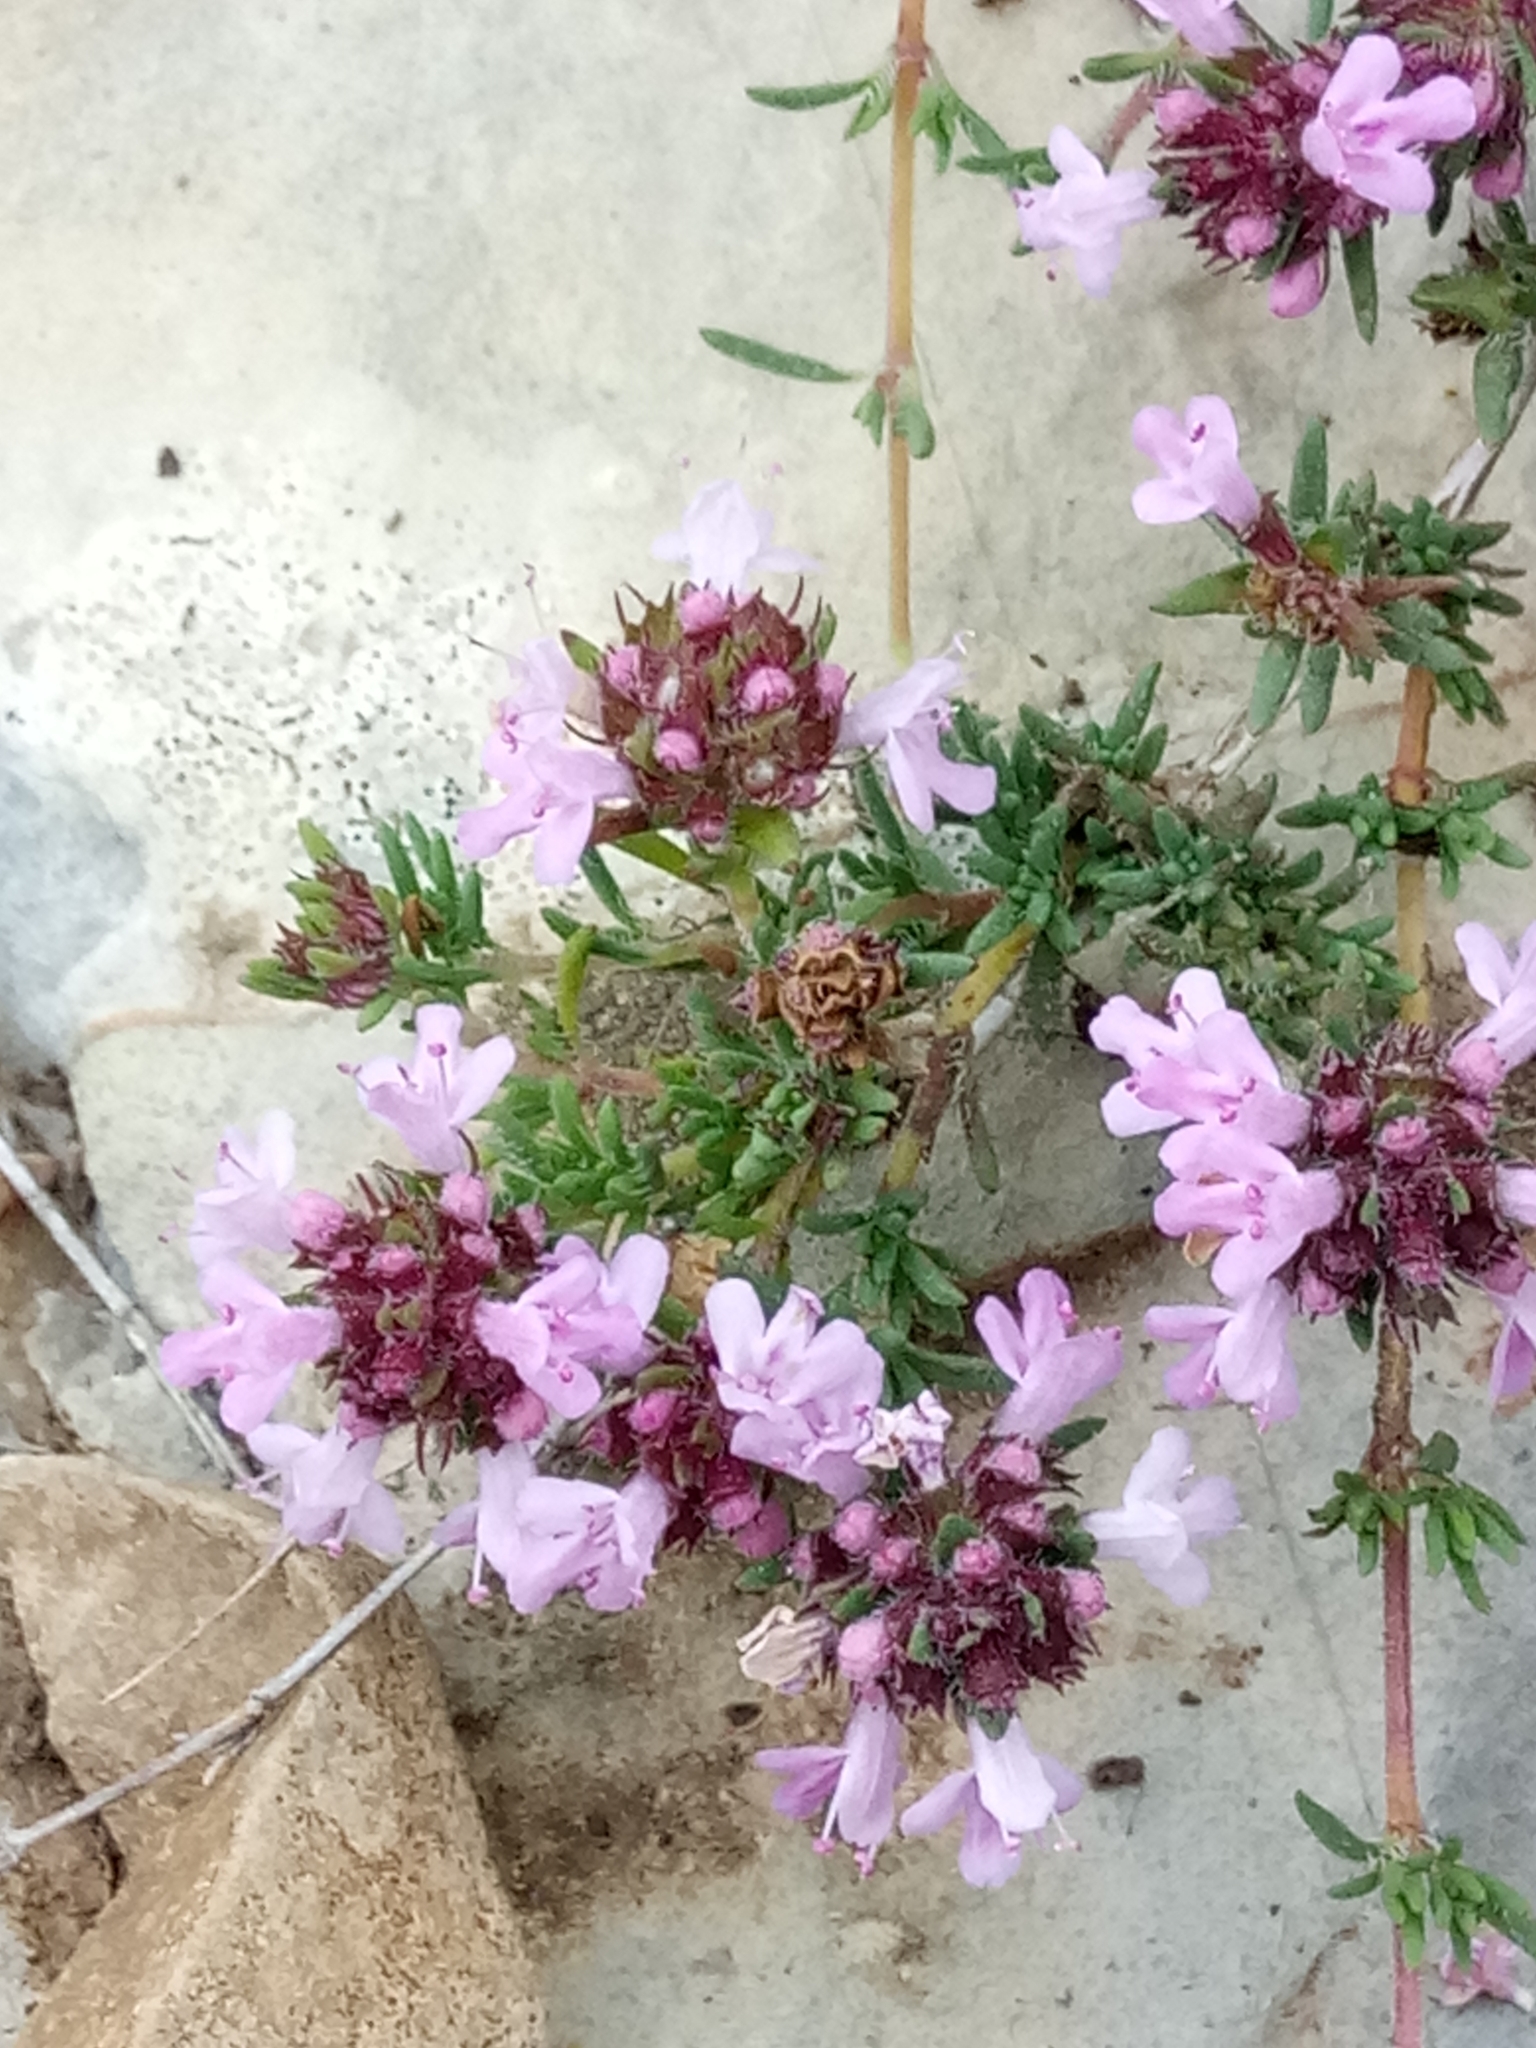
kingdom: Plantae
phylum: Tracheophyta
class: Magnoliopsida
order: Lamiales
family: Lamiaceae
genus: Thymus
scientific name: Thymus willdenowii
